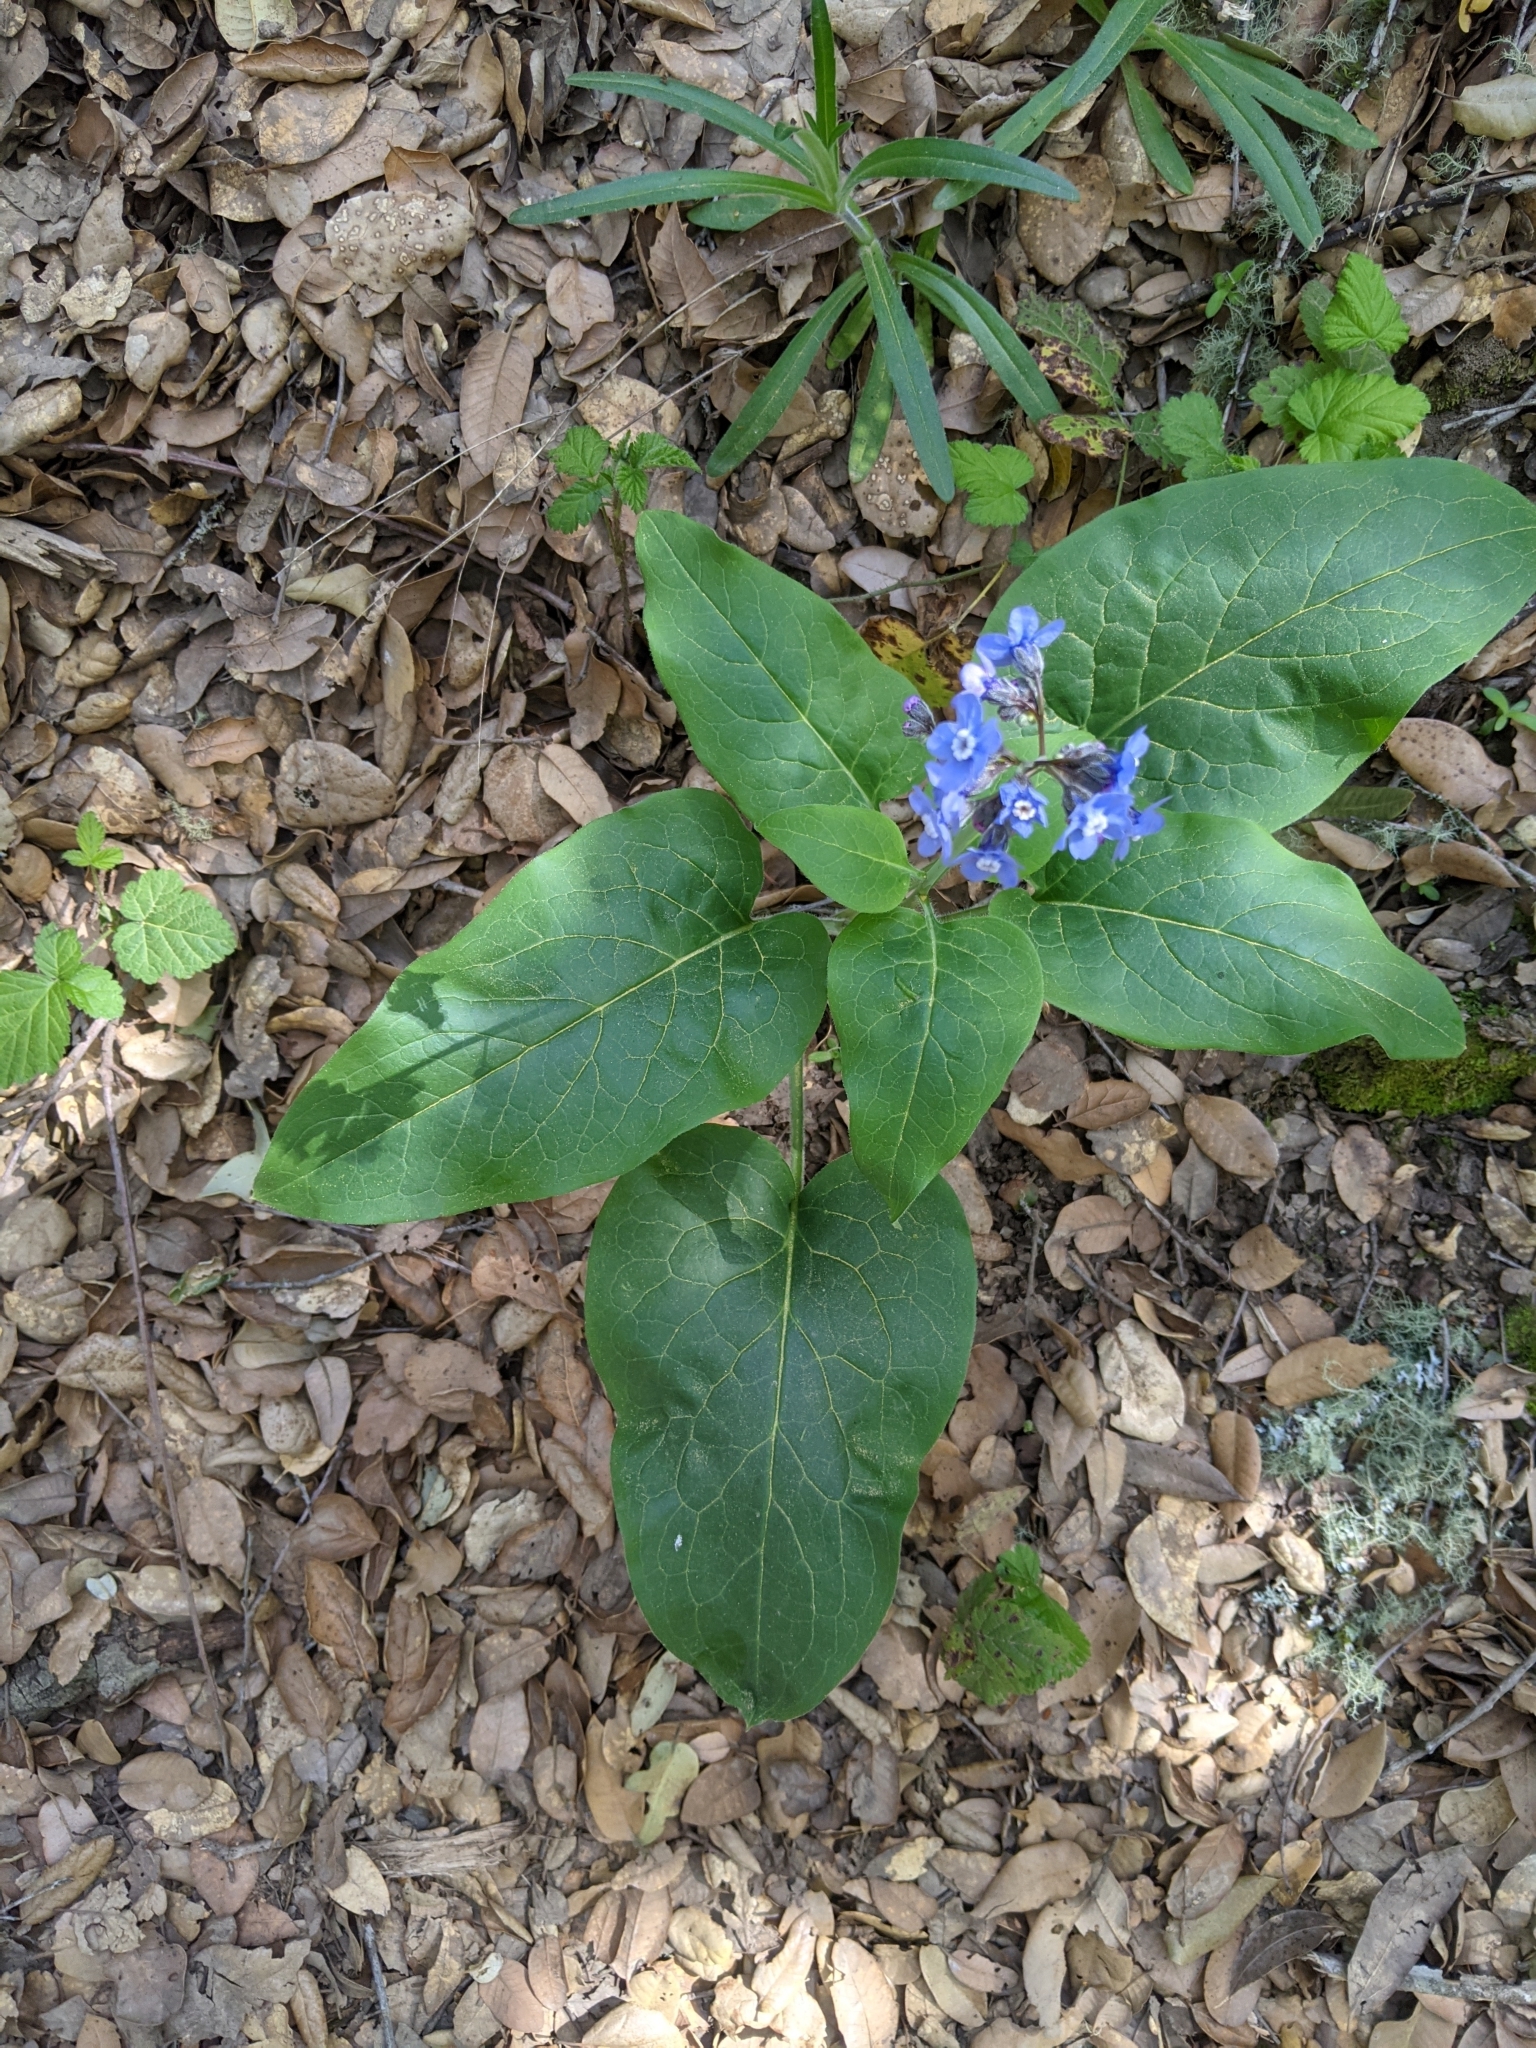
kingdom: Plantae
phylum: Tracheophyta
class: Magnoliopsida
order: Boraginales
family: Boraginaceae
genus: Adelinia
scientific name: Adelinia grande
